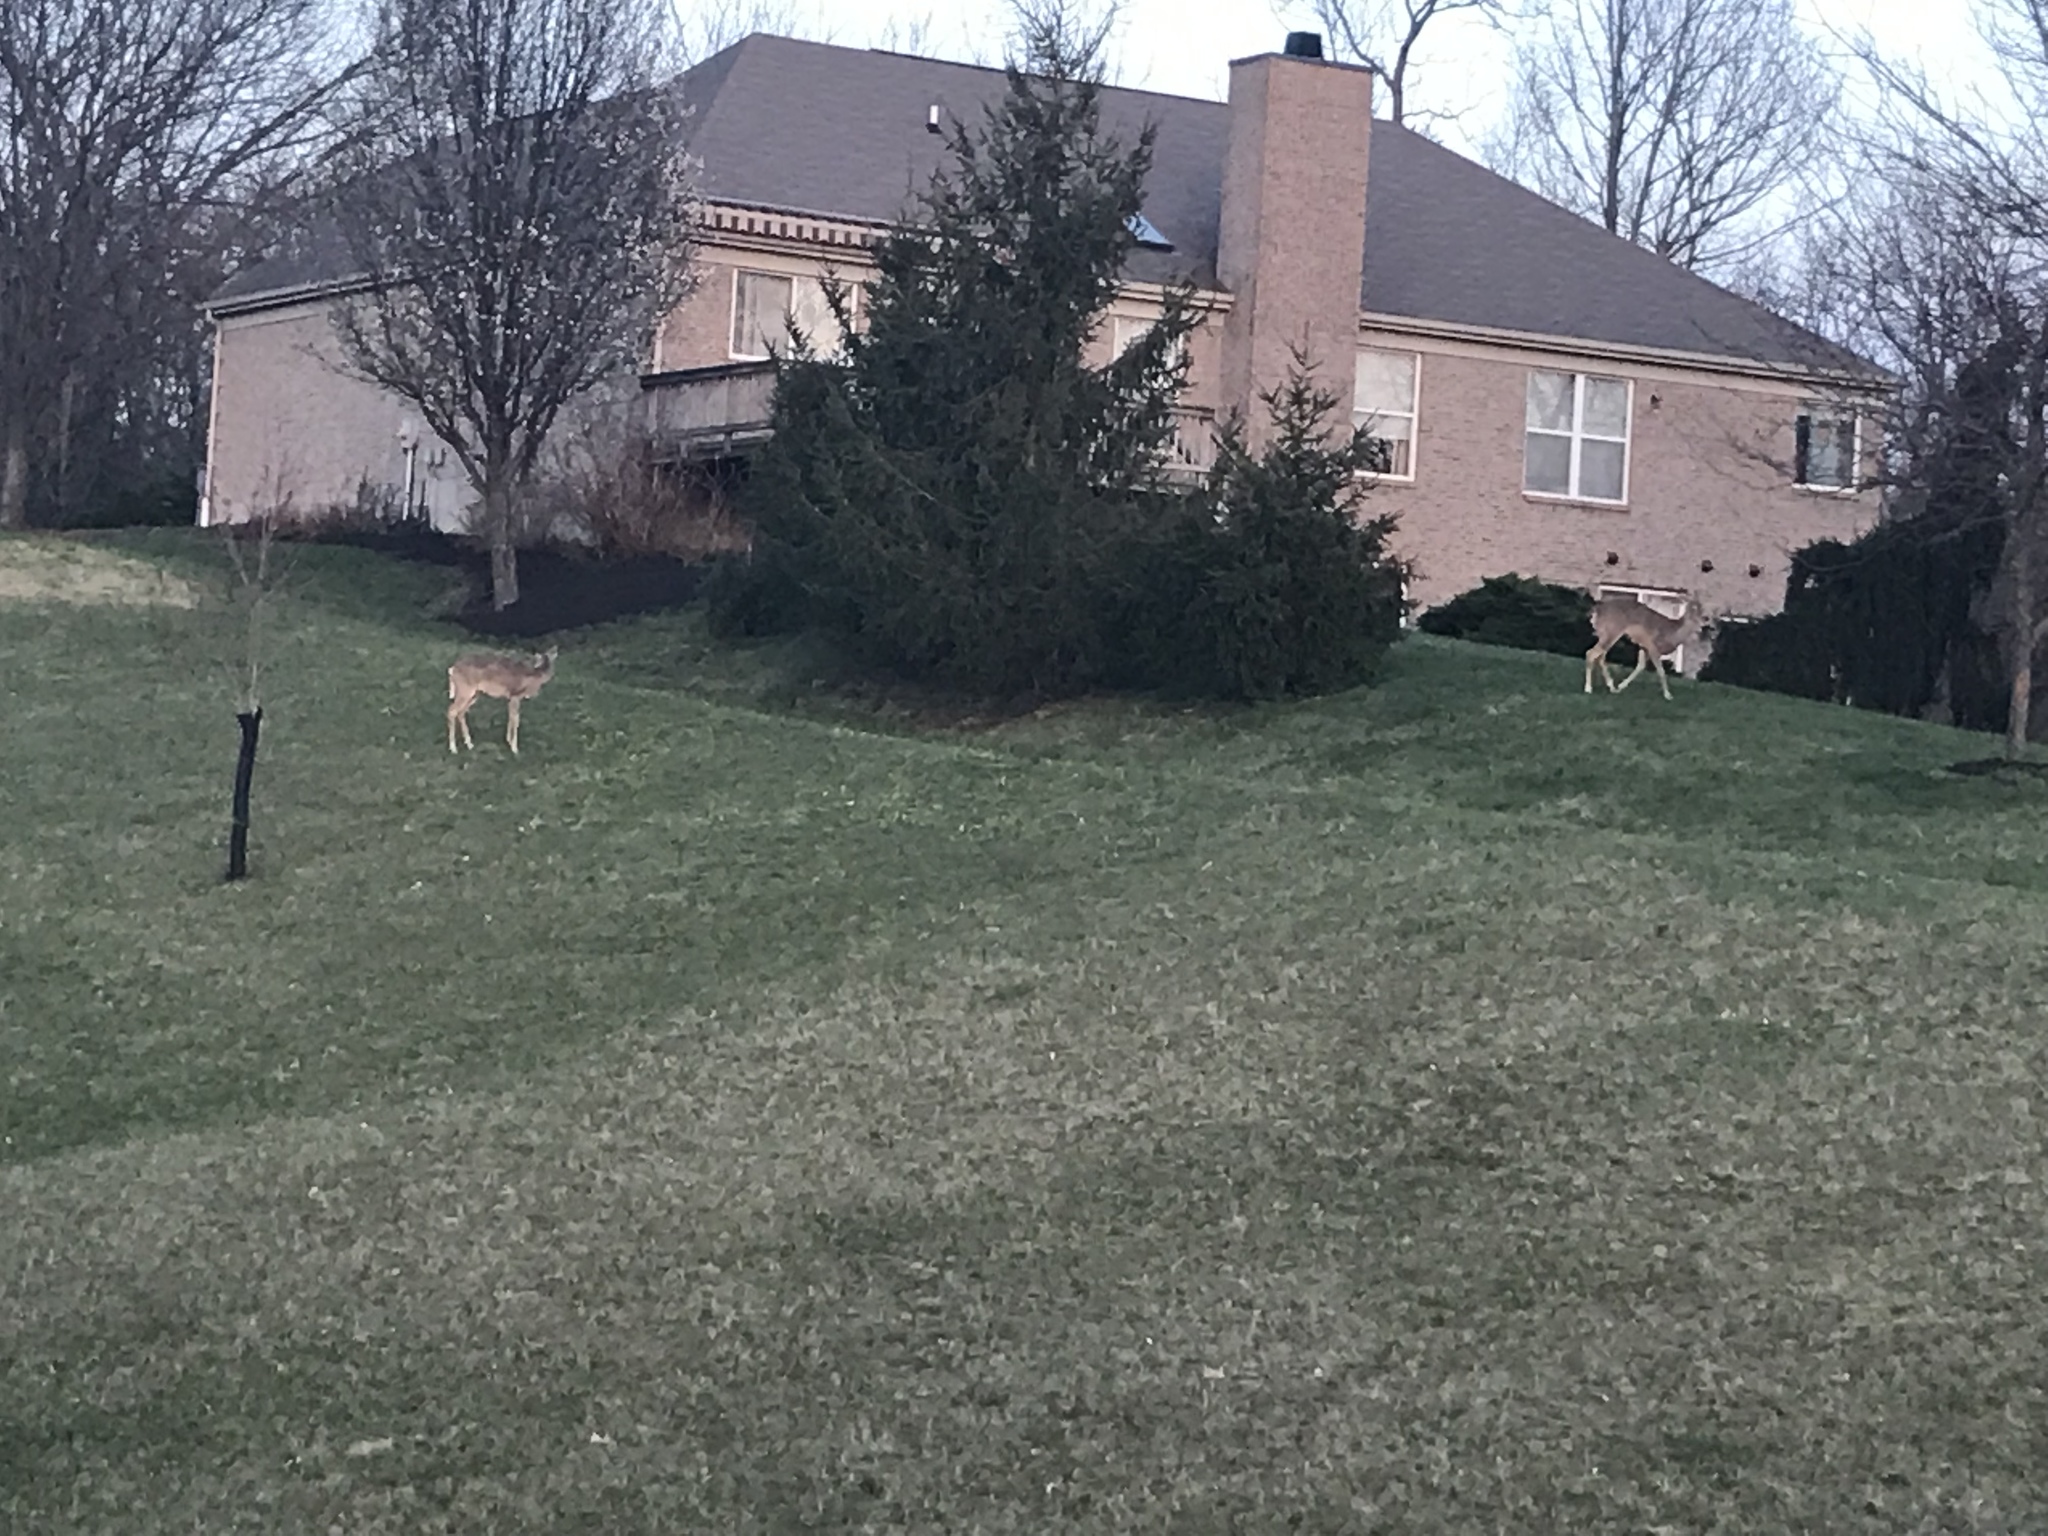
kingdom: Animalia
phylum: Chordata
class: Mammalia
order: Artiodactyla
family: Cervidae
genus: Odocoileus
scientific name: Odocoileus virginianus
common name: White-tailed deer
